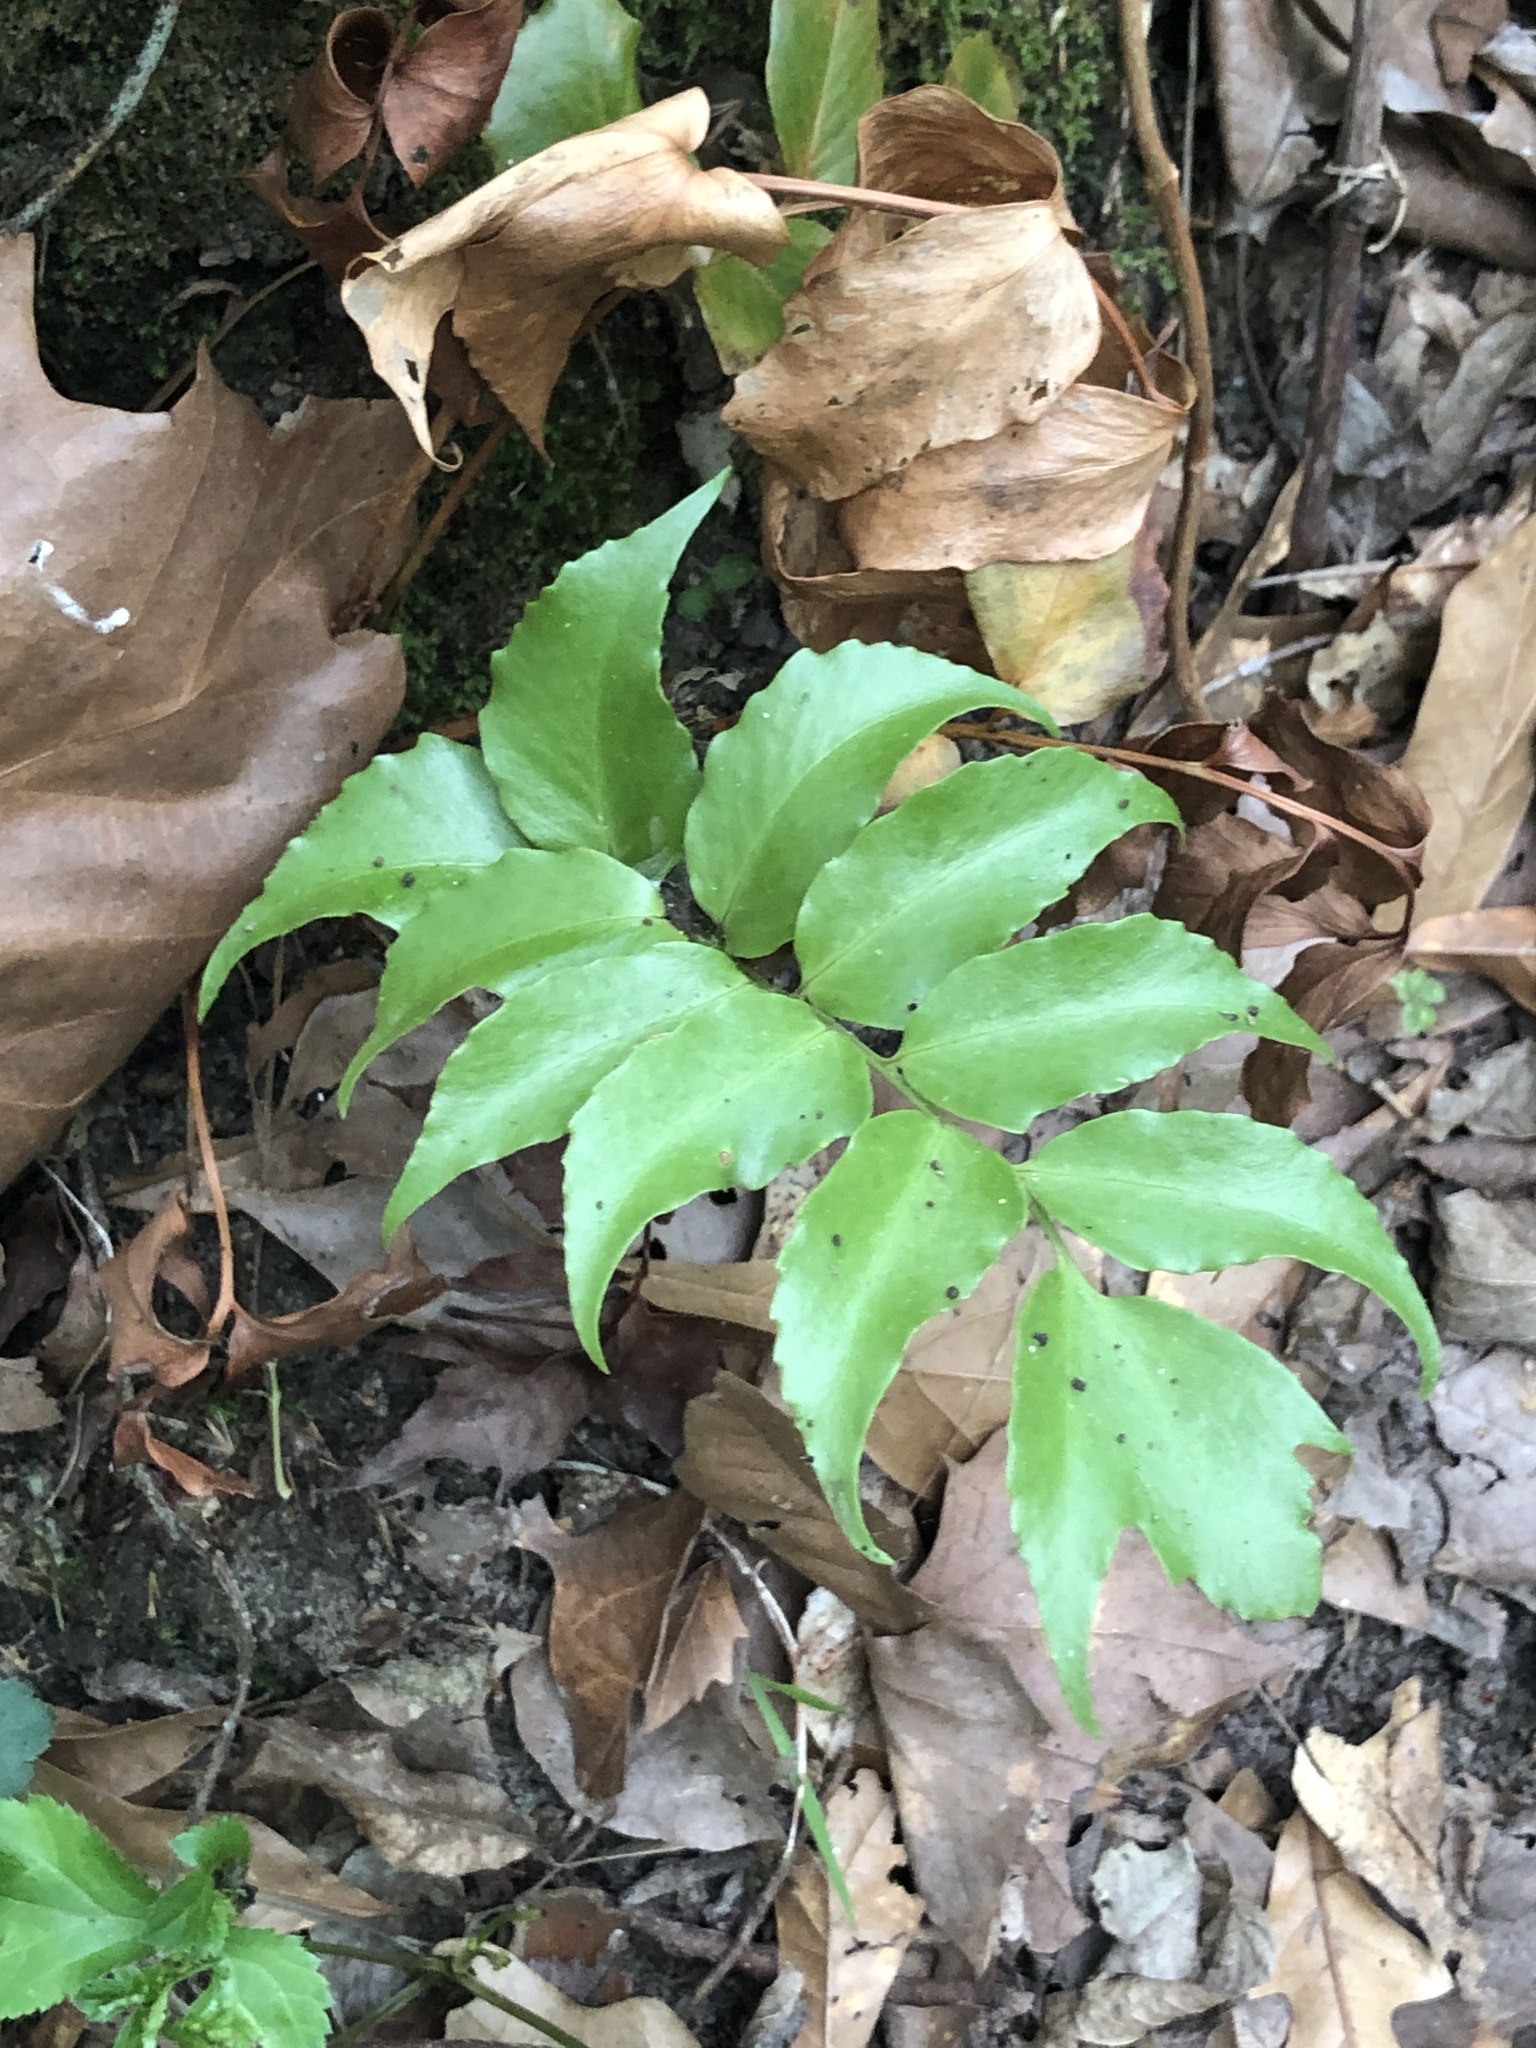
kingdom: Plantae
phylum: Tracheophyta
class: Polypodiopsida
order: Polypodiales
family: Dryopteridaceae
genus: Cyrtomium
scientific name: Cyrtomium falcatum
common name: House holly-fern
